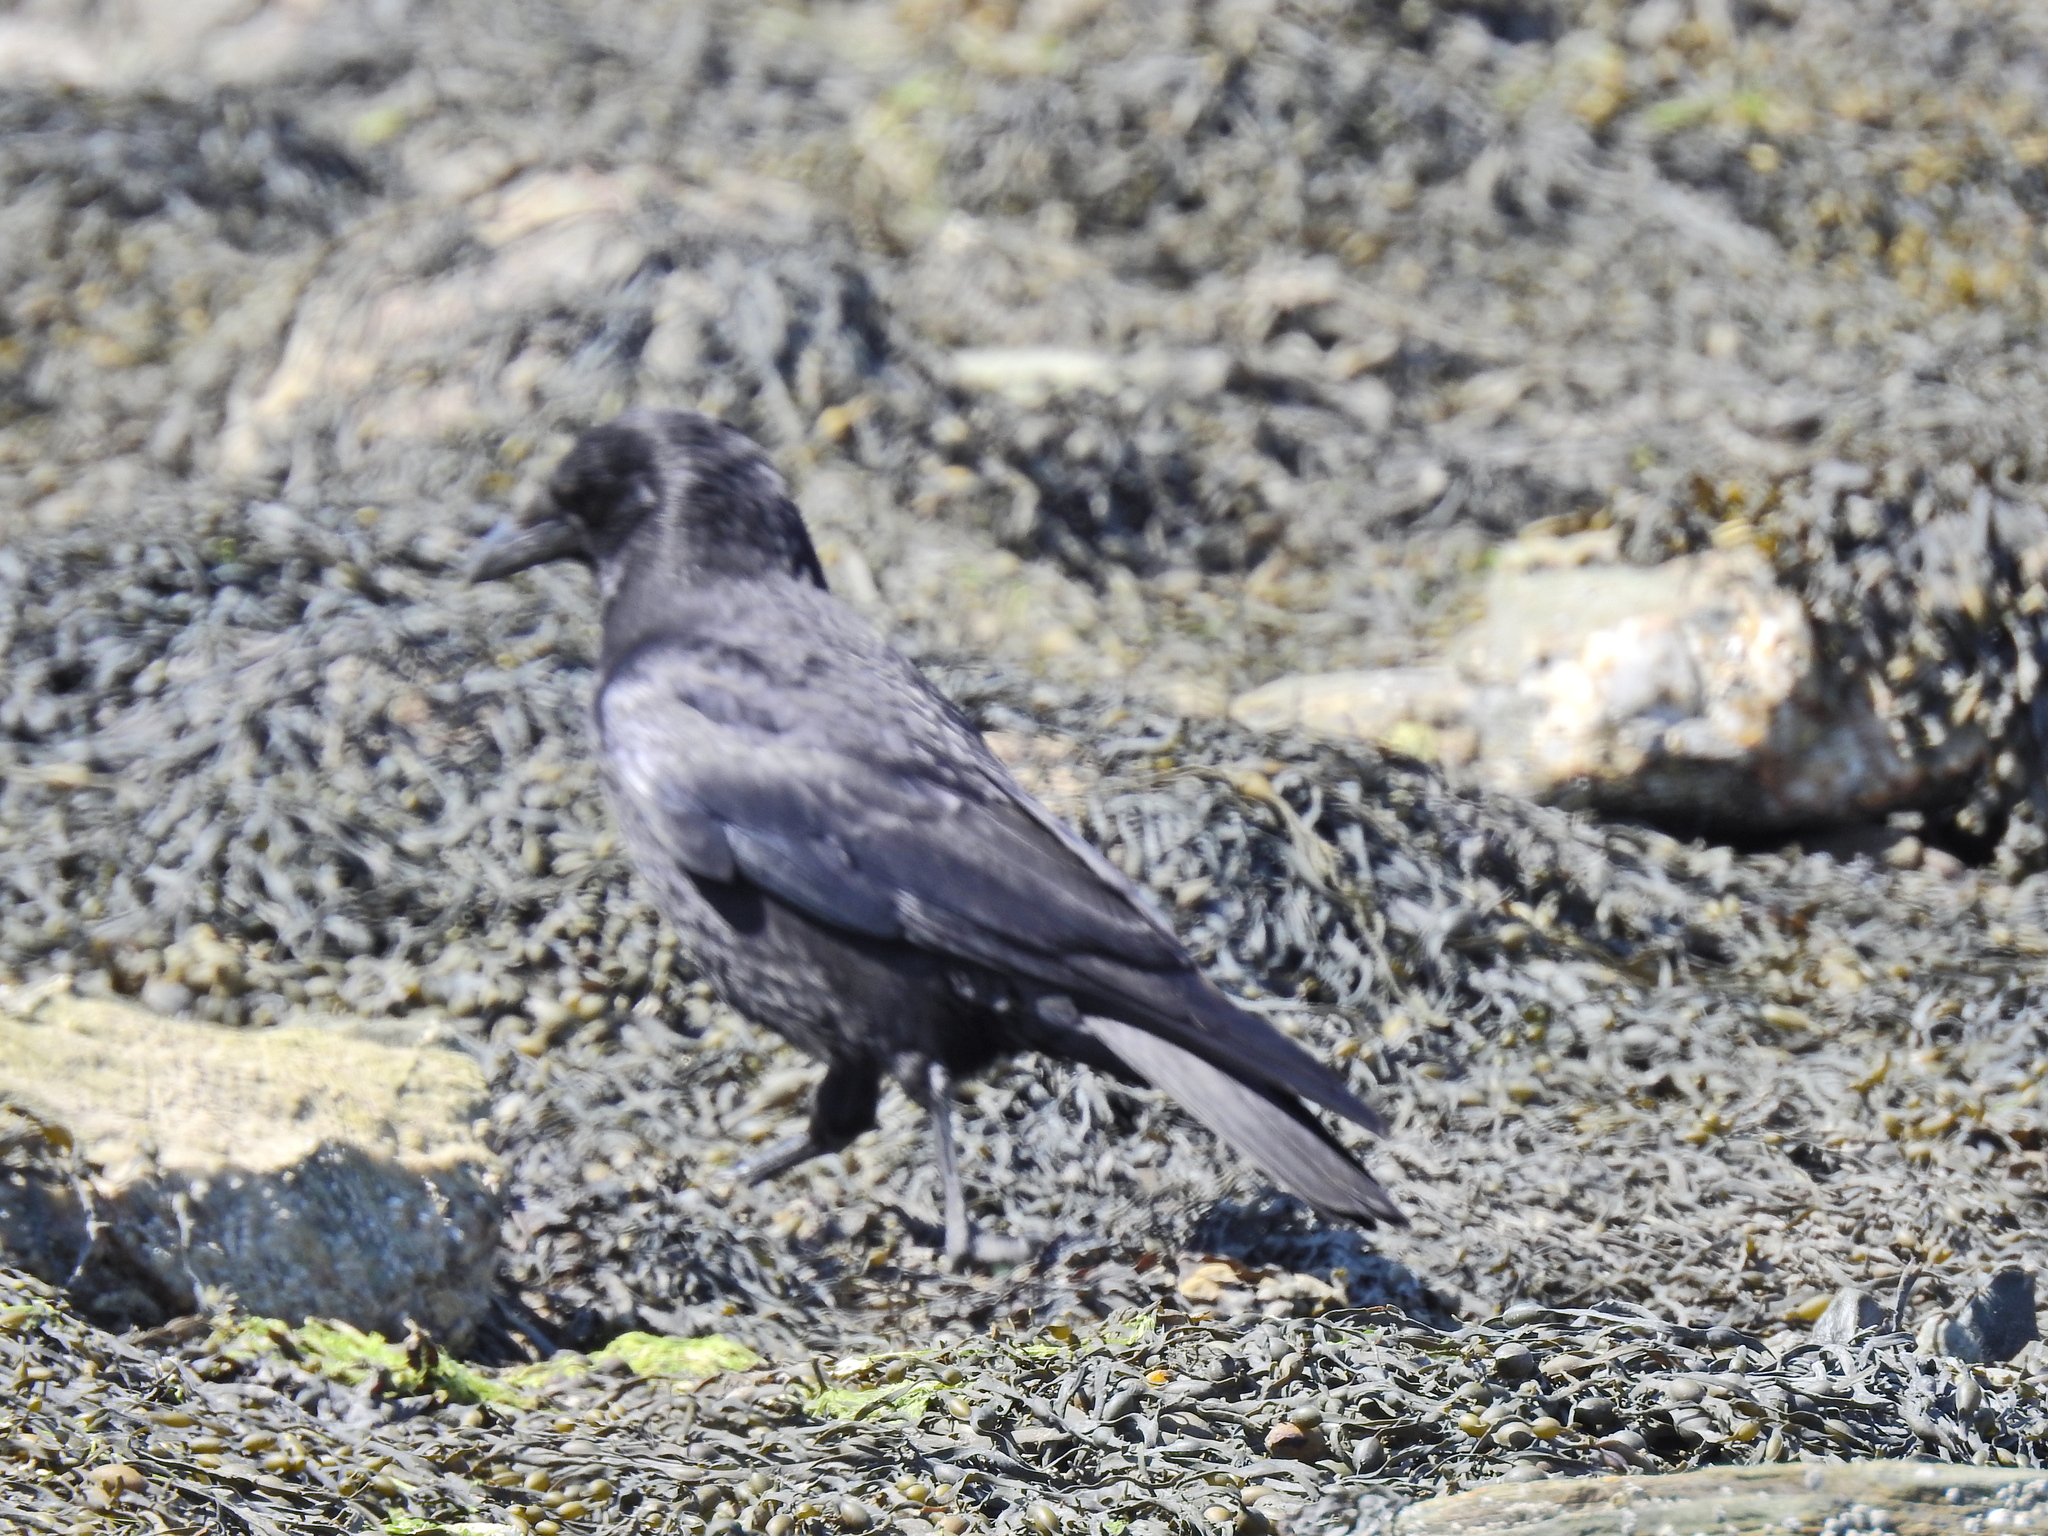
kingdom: Animalia
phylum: Chordata
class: Aves
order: Passeriformes
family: Corvidae
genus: Corvus
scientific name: Corvus corone
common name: Carrion crow
